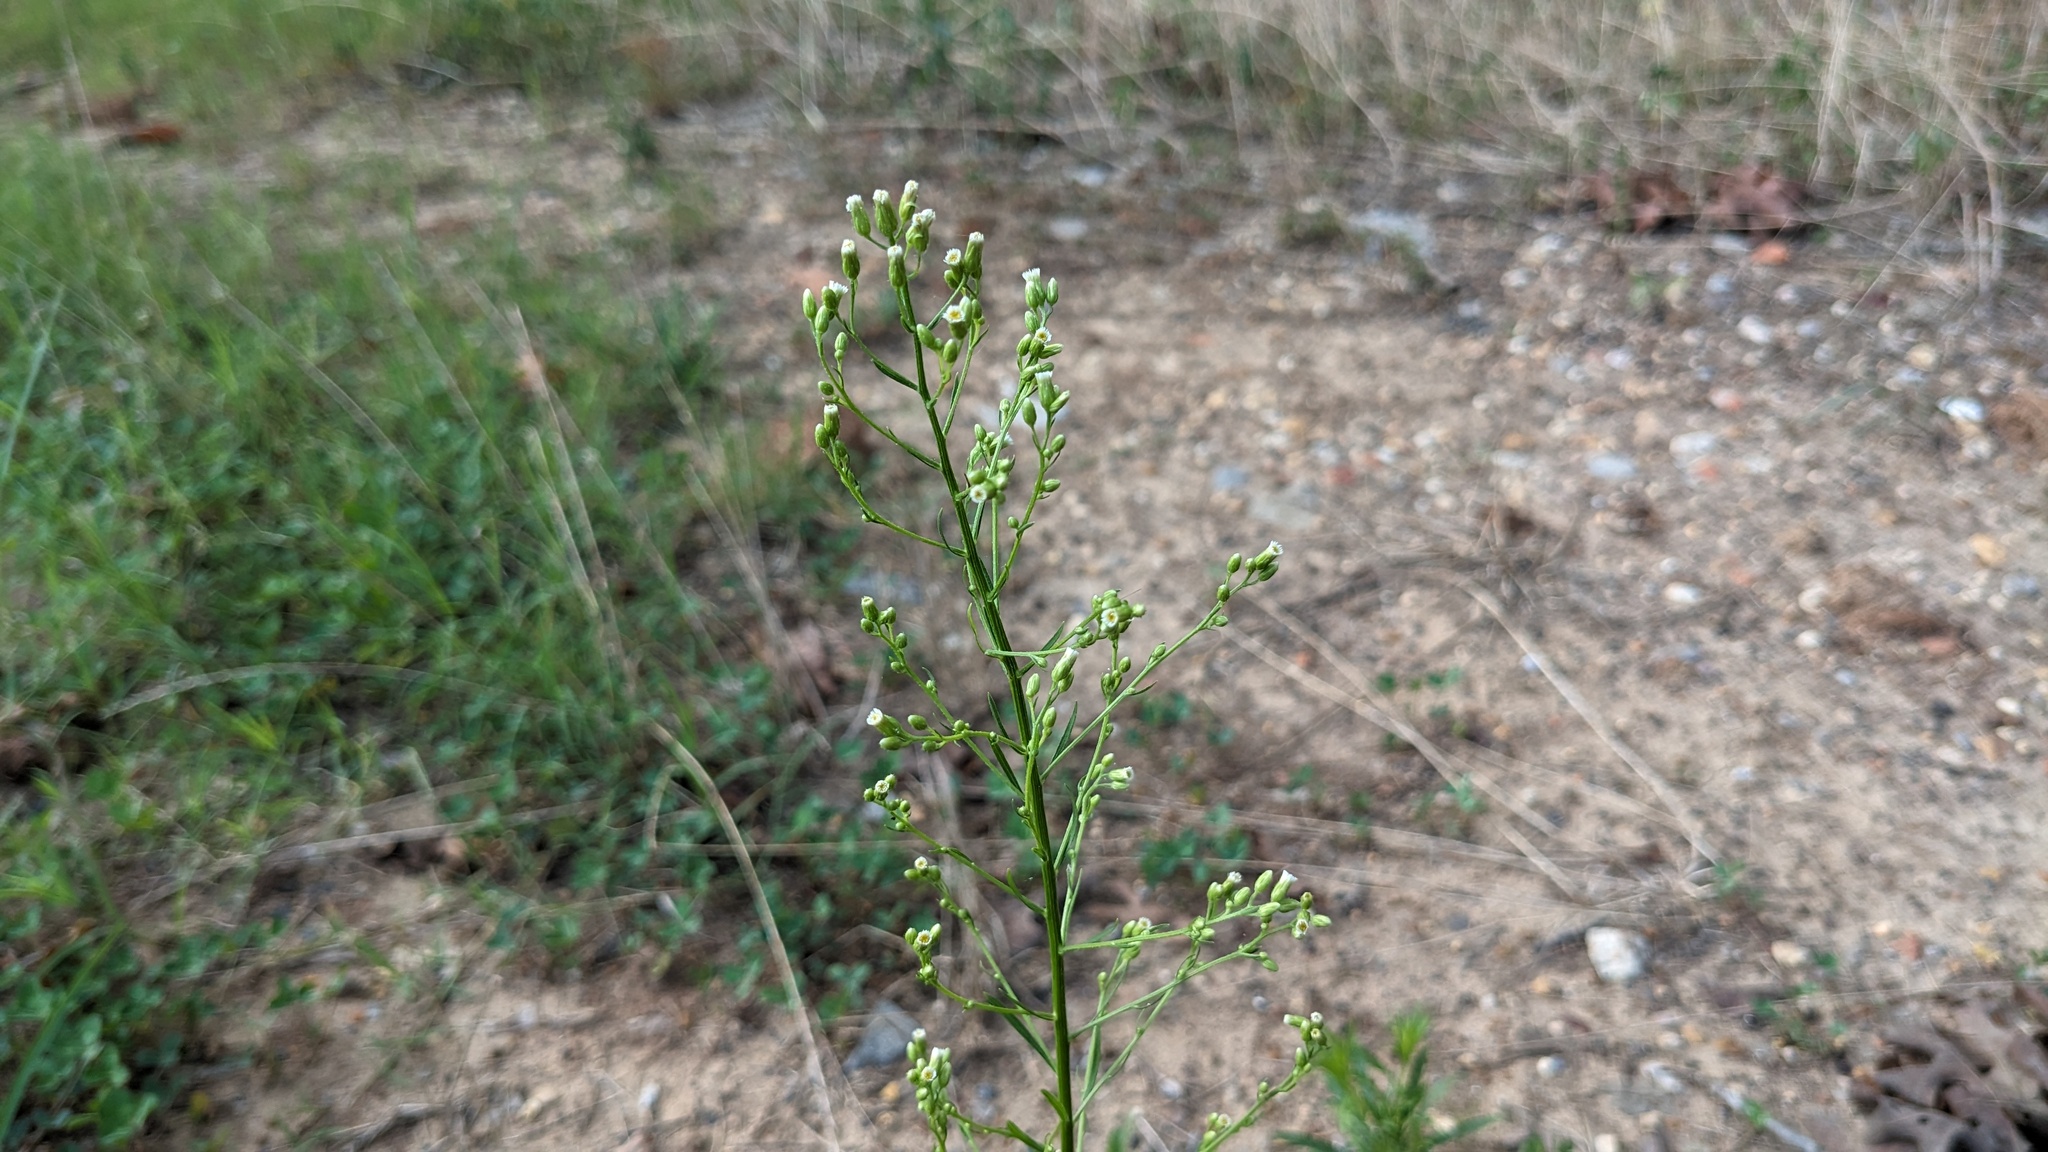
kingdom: Plantae
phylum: Tracheophyta
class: Magnoliopsida
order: Asterales
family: Asteraceae
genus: Erigeron
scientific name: Erigeron canadensis
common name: Canadian fleabane
